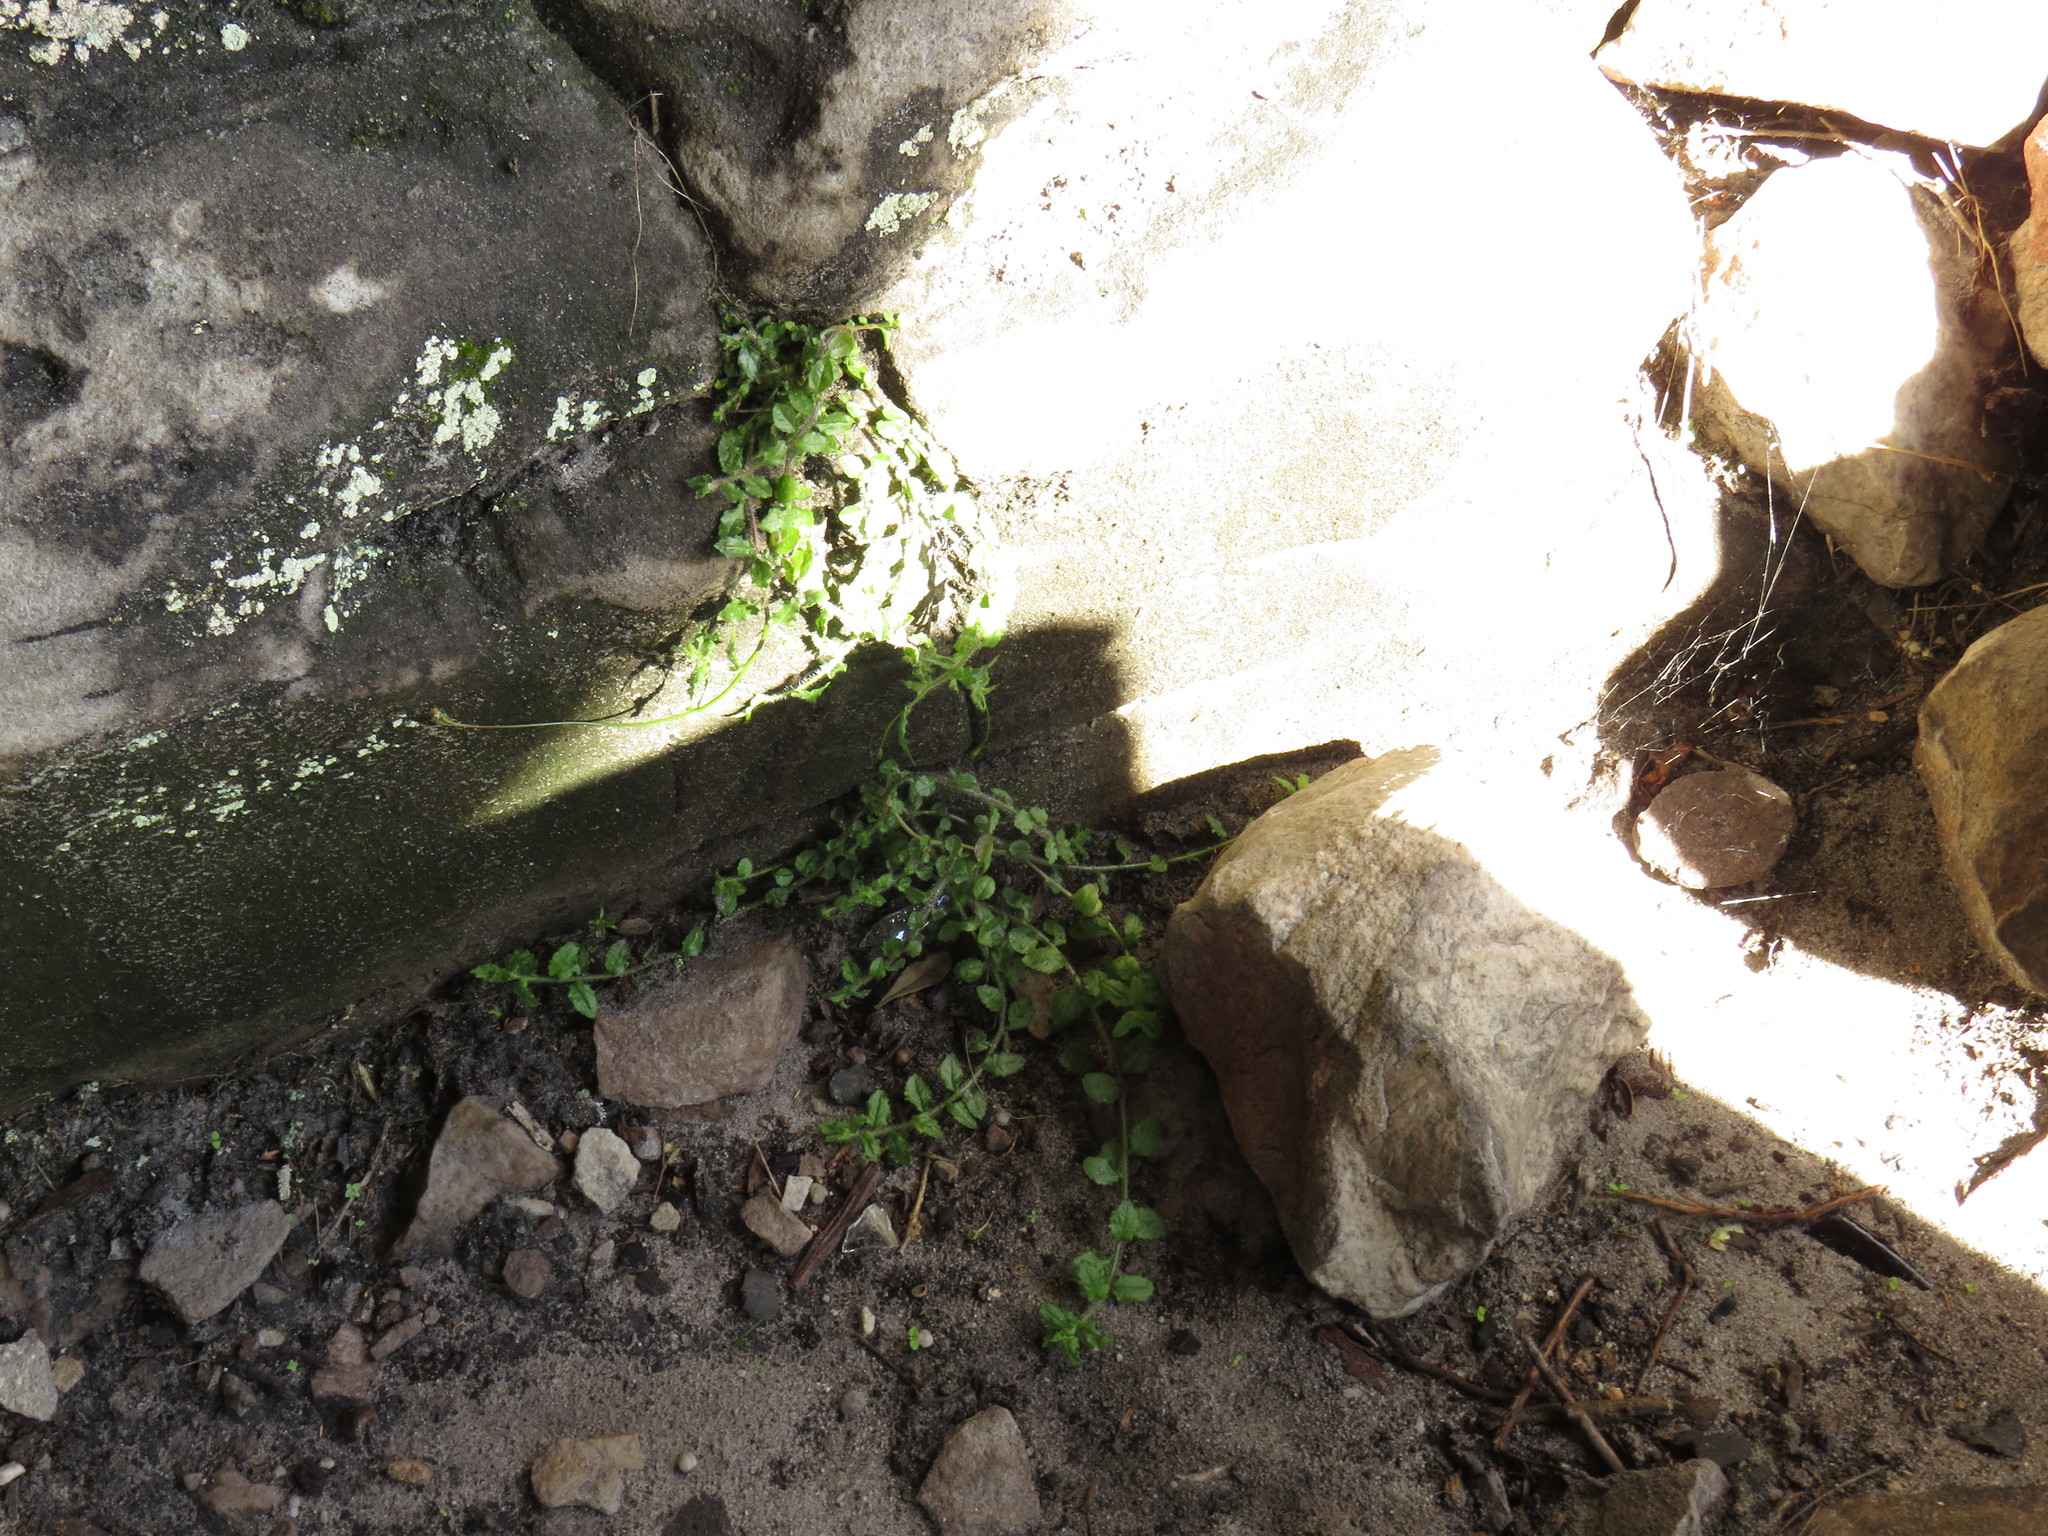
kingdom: Plantae
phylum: Tracheophyta
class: Magnoliopsida
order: Asterales
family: Campanulaceae
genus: Lobelia
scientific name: Lobelia pubescens
